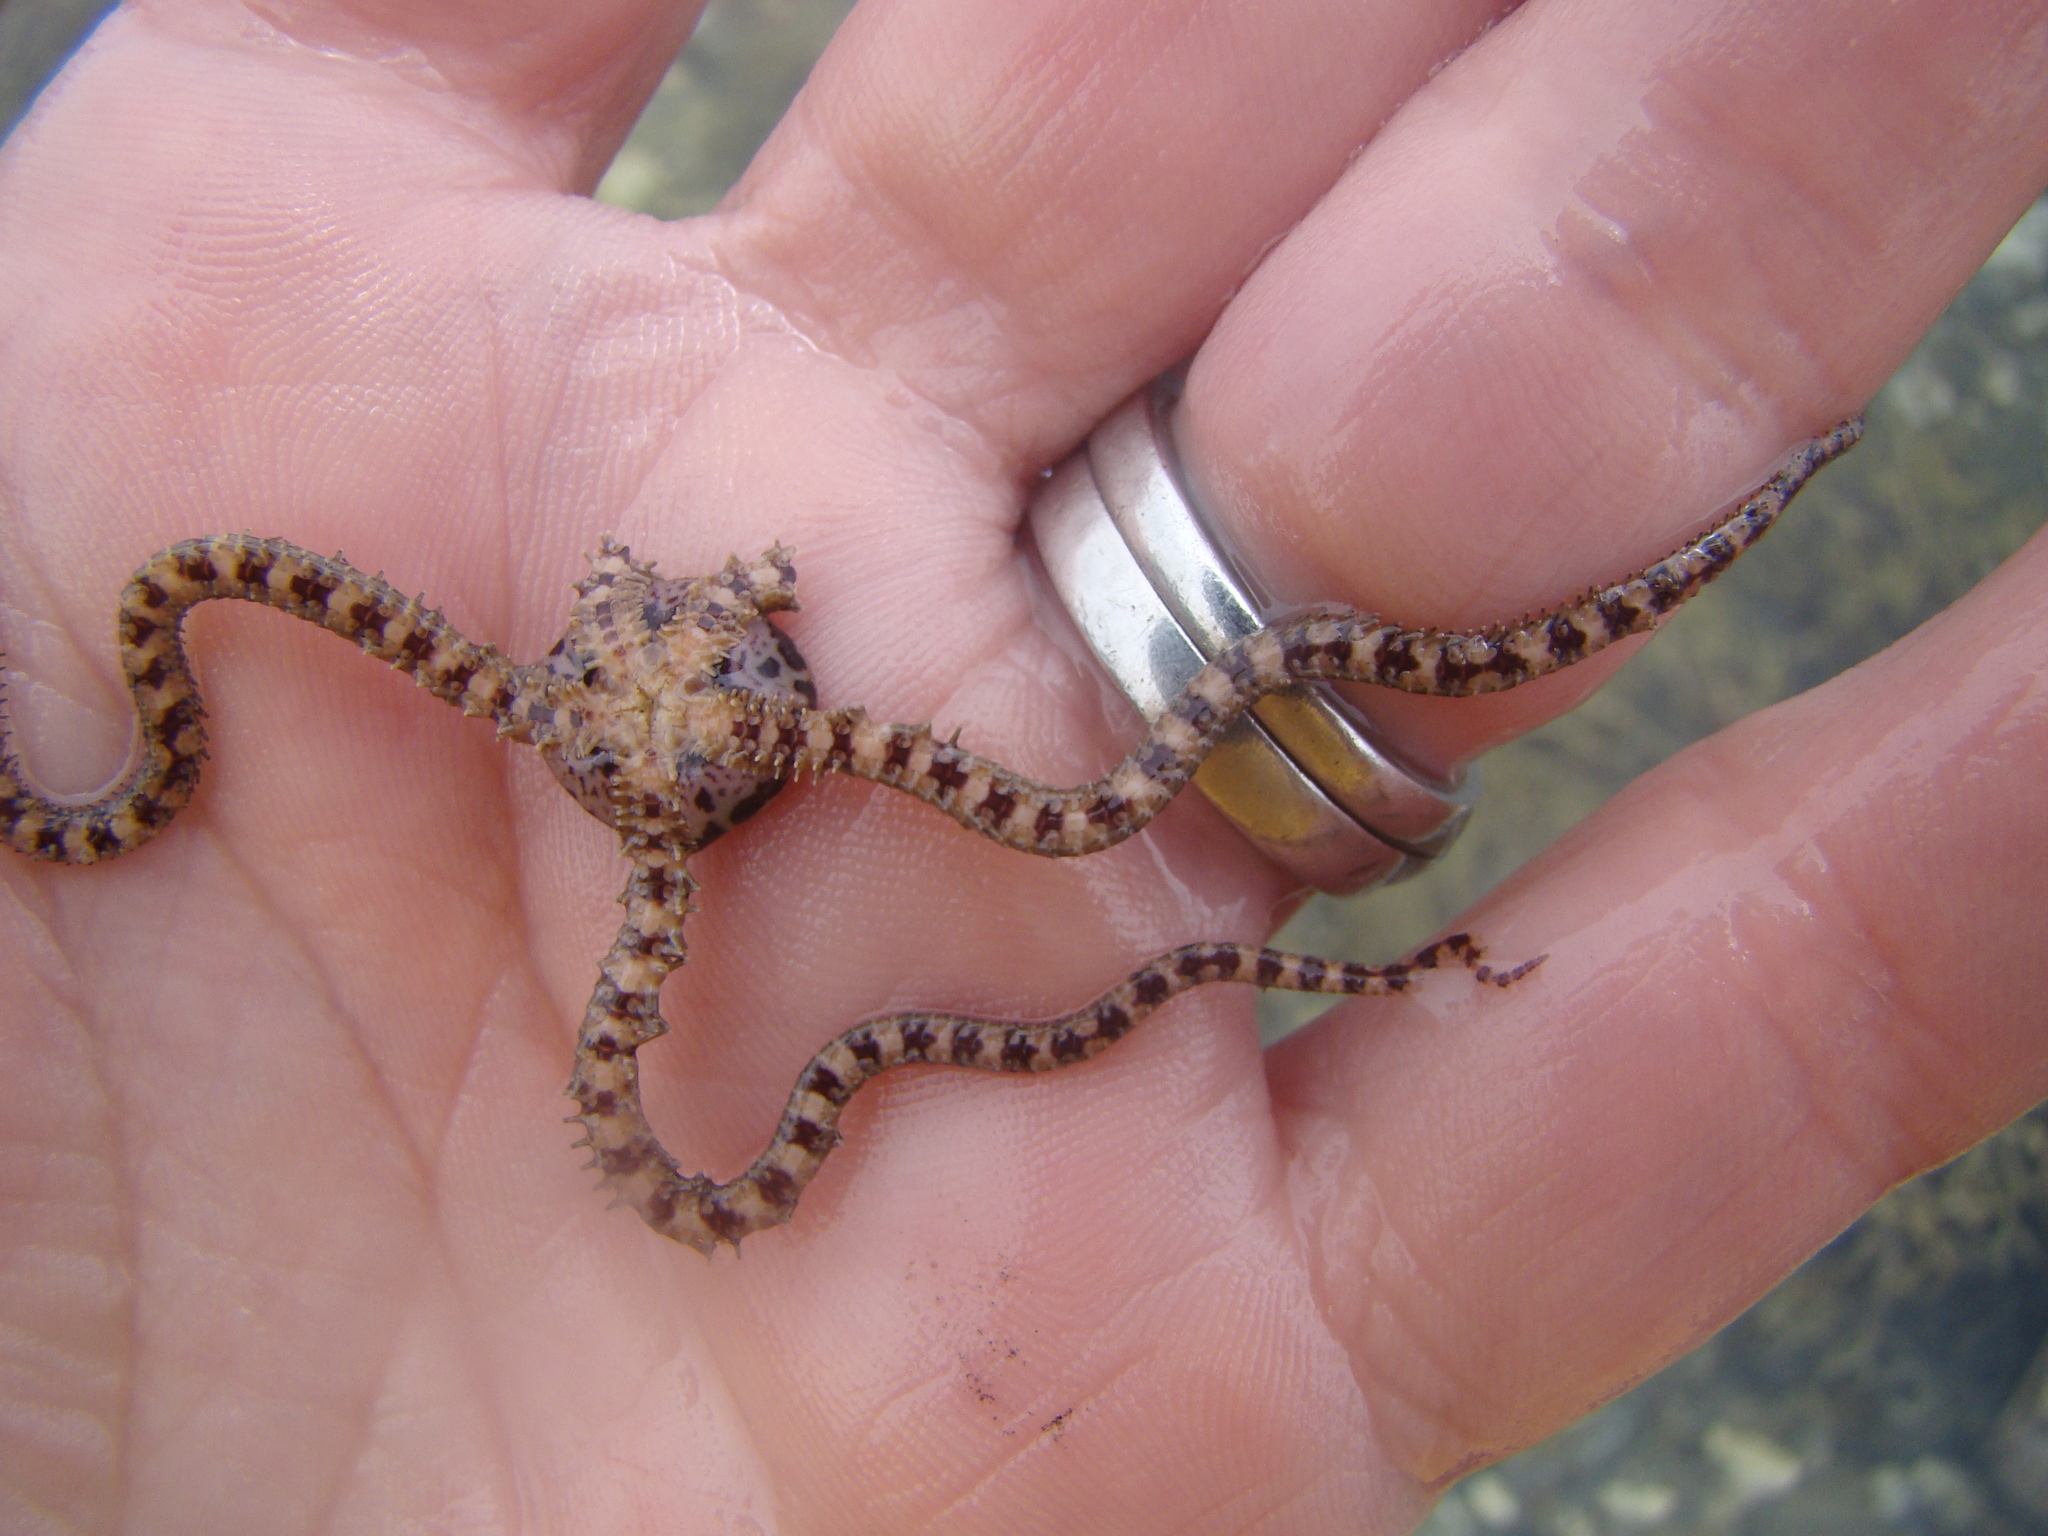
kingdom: Animalia
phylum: Echinodermata
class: Ophiuroidea
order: Amphilepidida
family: Ophionereididae
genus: Ophionereis
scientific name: Ophionereis fasciata
